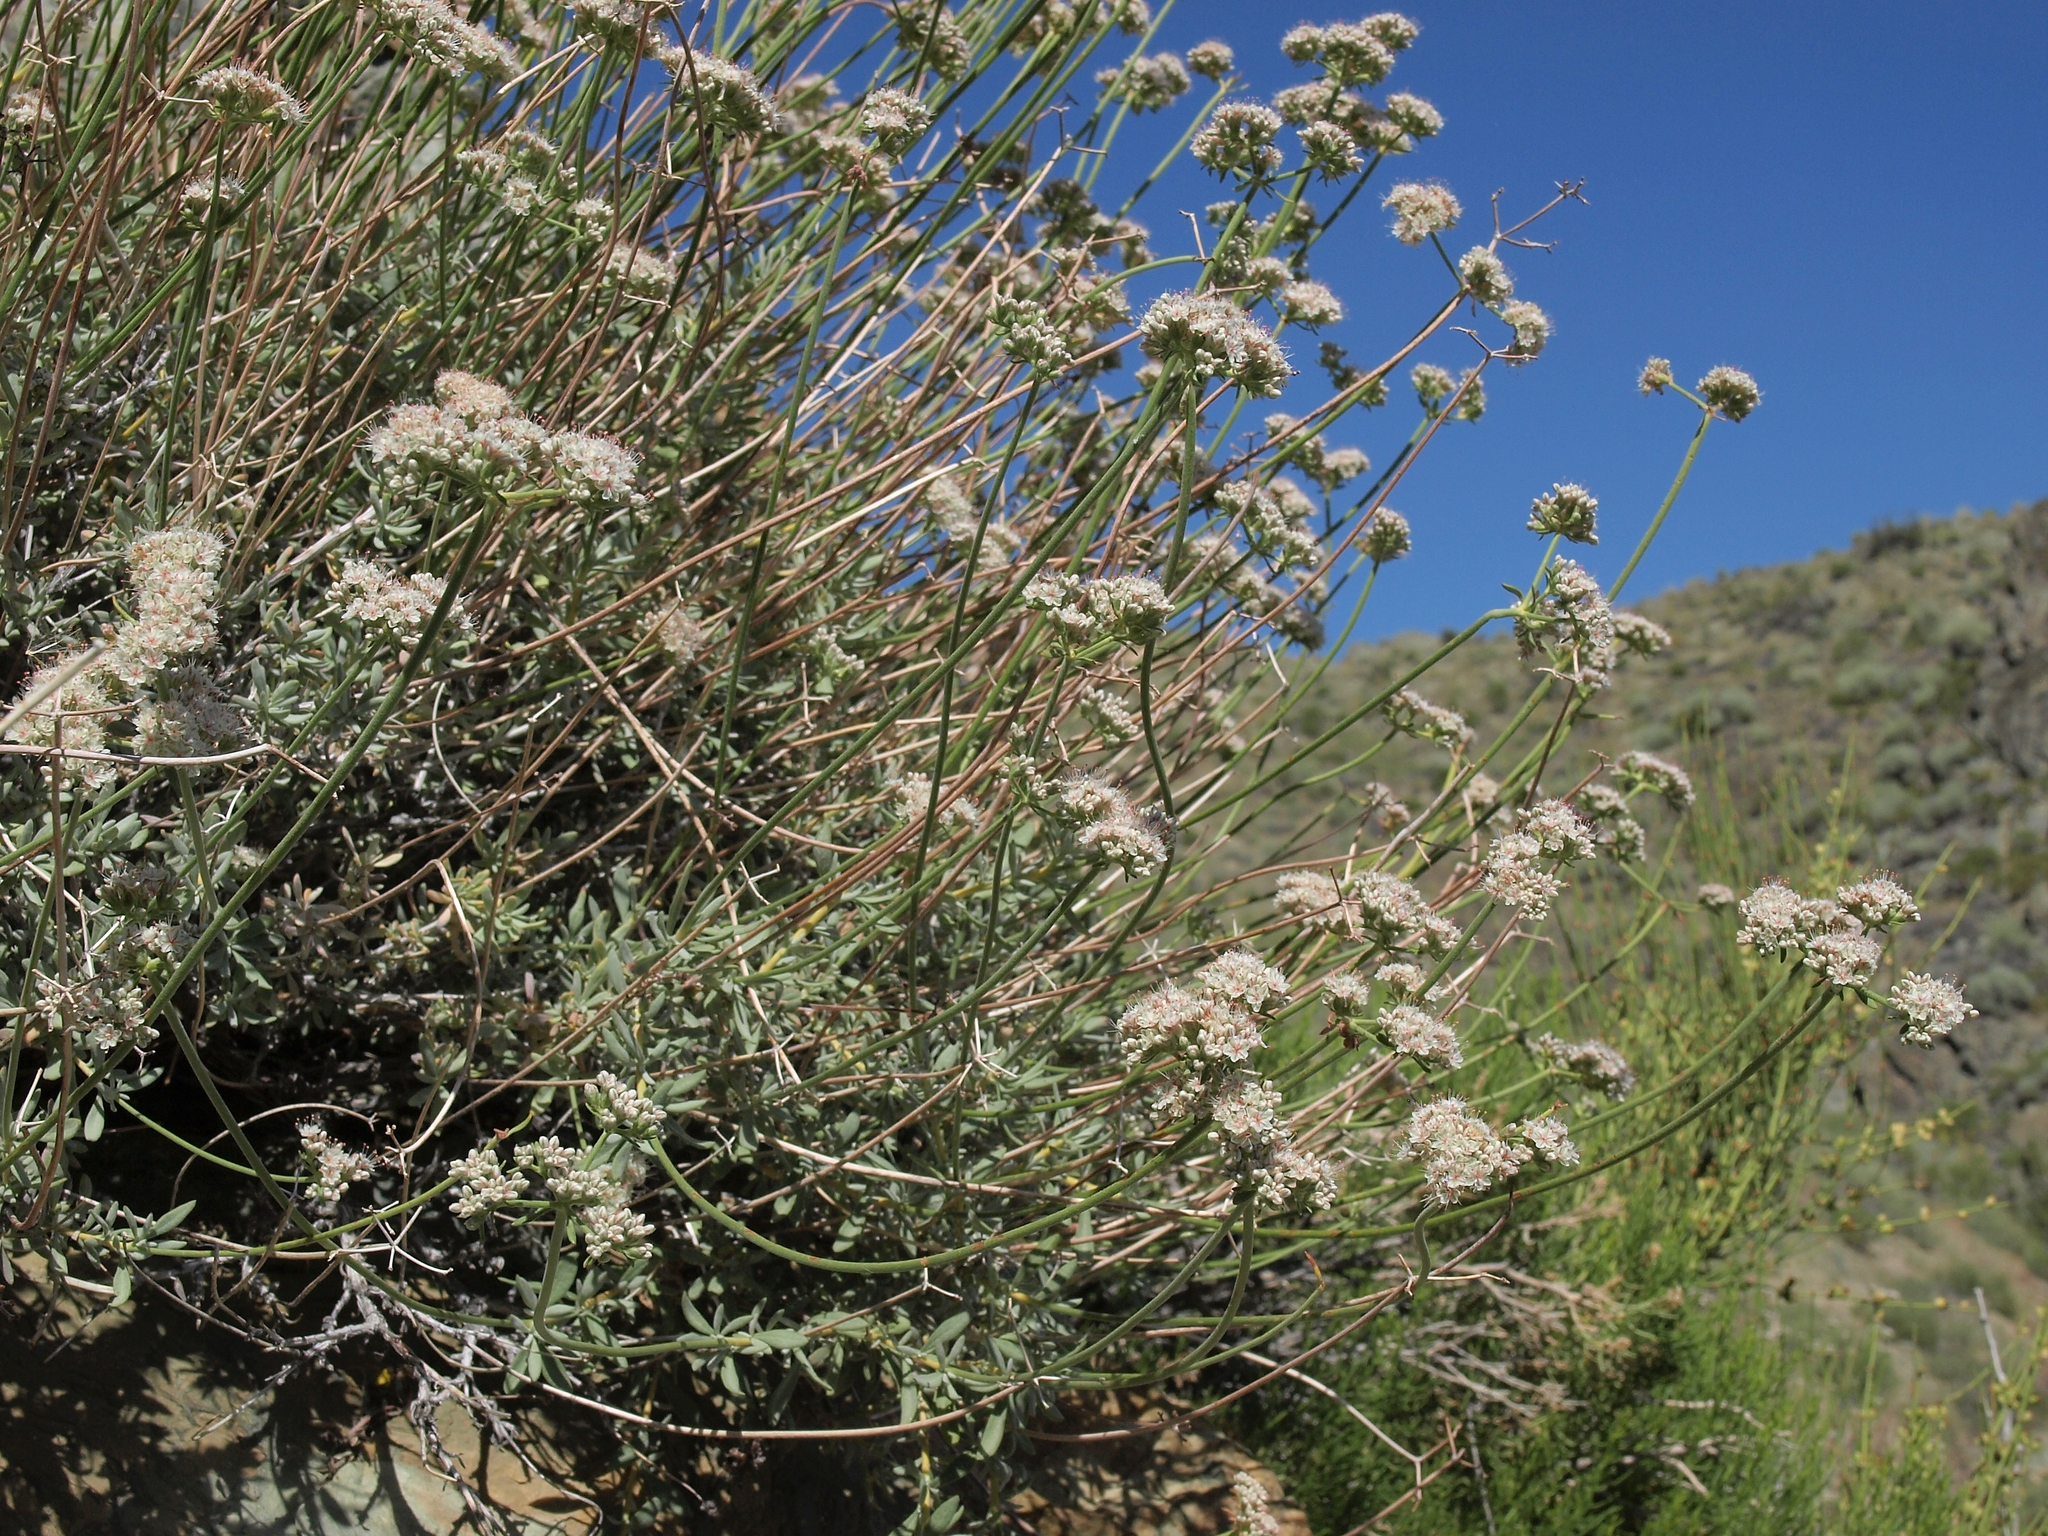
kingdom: Plantae
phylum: Tracheophyta
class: Magnoliopsida
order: Caryophyllales
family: Polygonaceae
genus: Eriogonum
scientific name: Eriogonum fasciculatum
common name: California wild buckwheat
